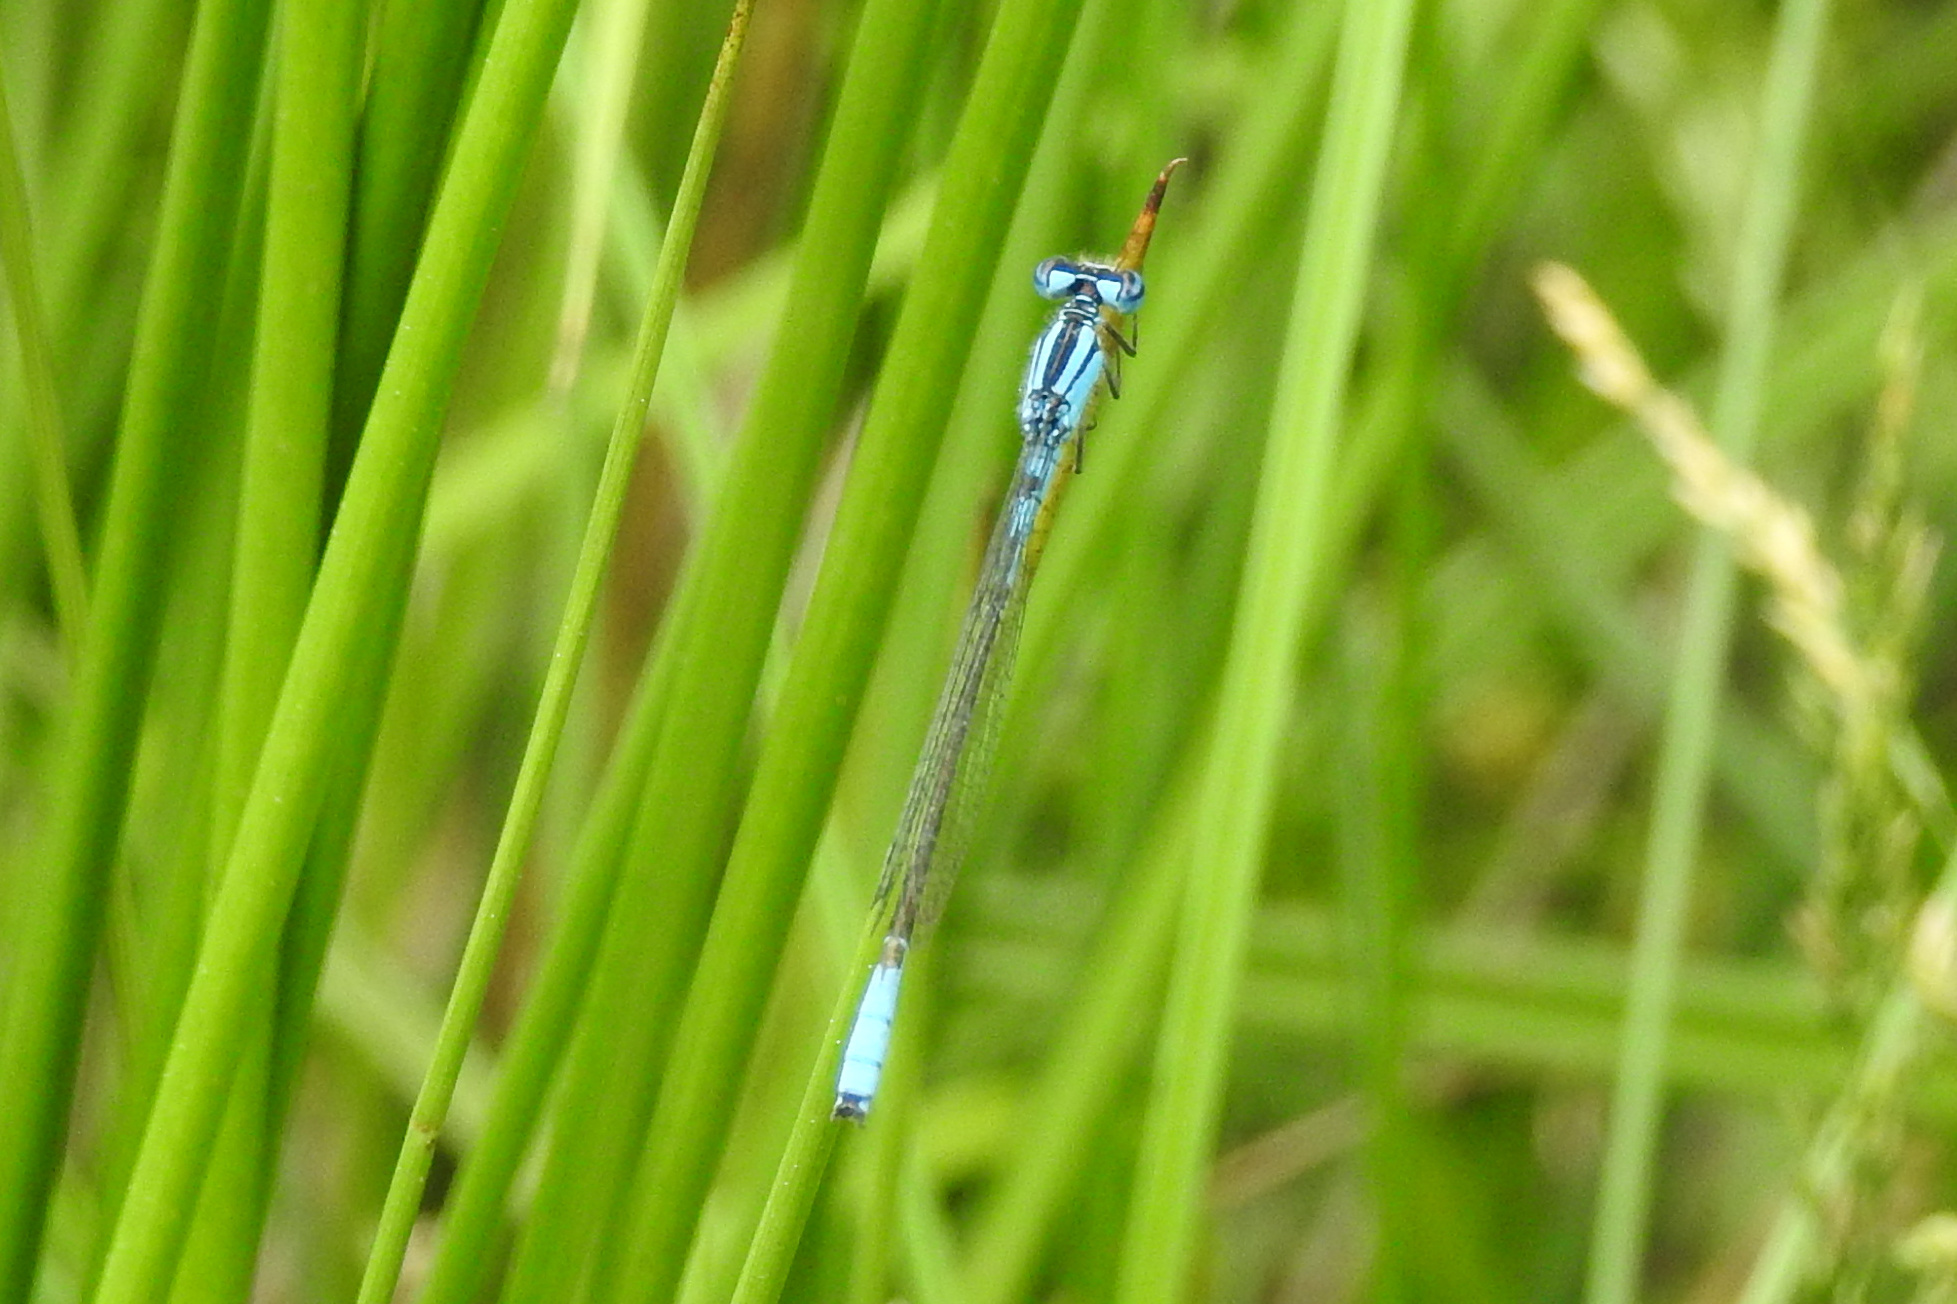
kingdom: Animalia
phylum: Arthropoda
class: Insecta
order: Odonata
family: Coenagrionidae
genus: Enallagma
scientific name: Enallagma aspersum
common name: Azure bluet
